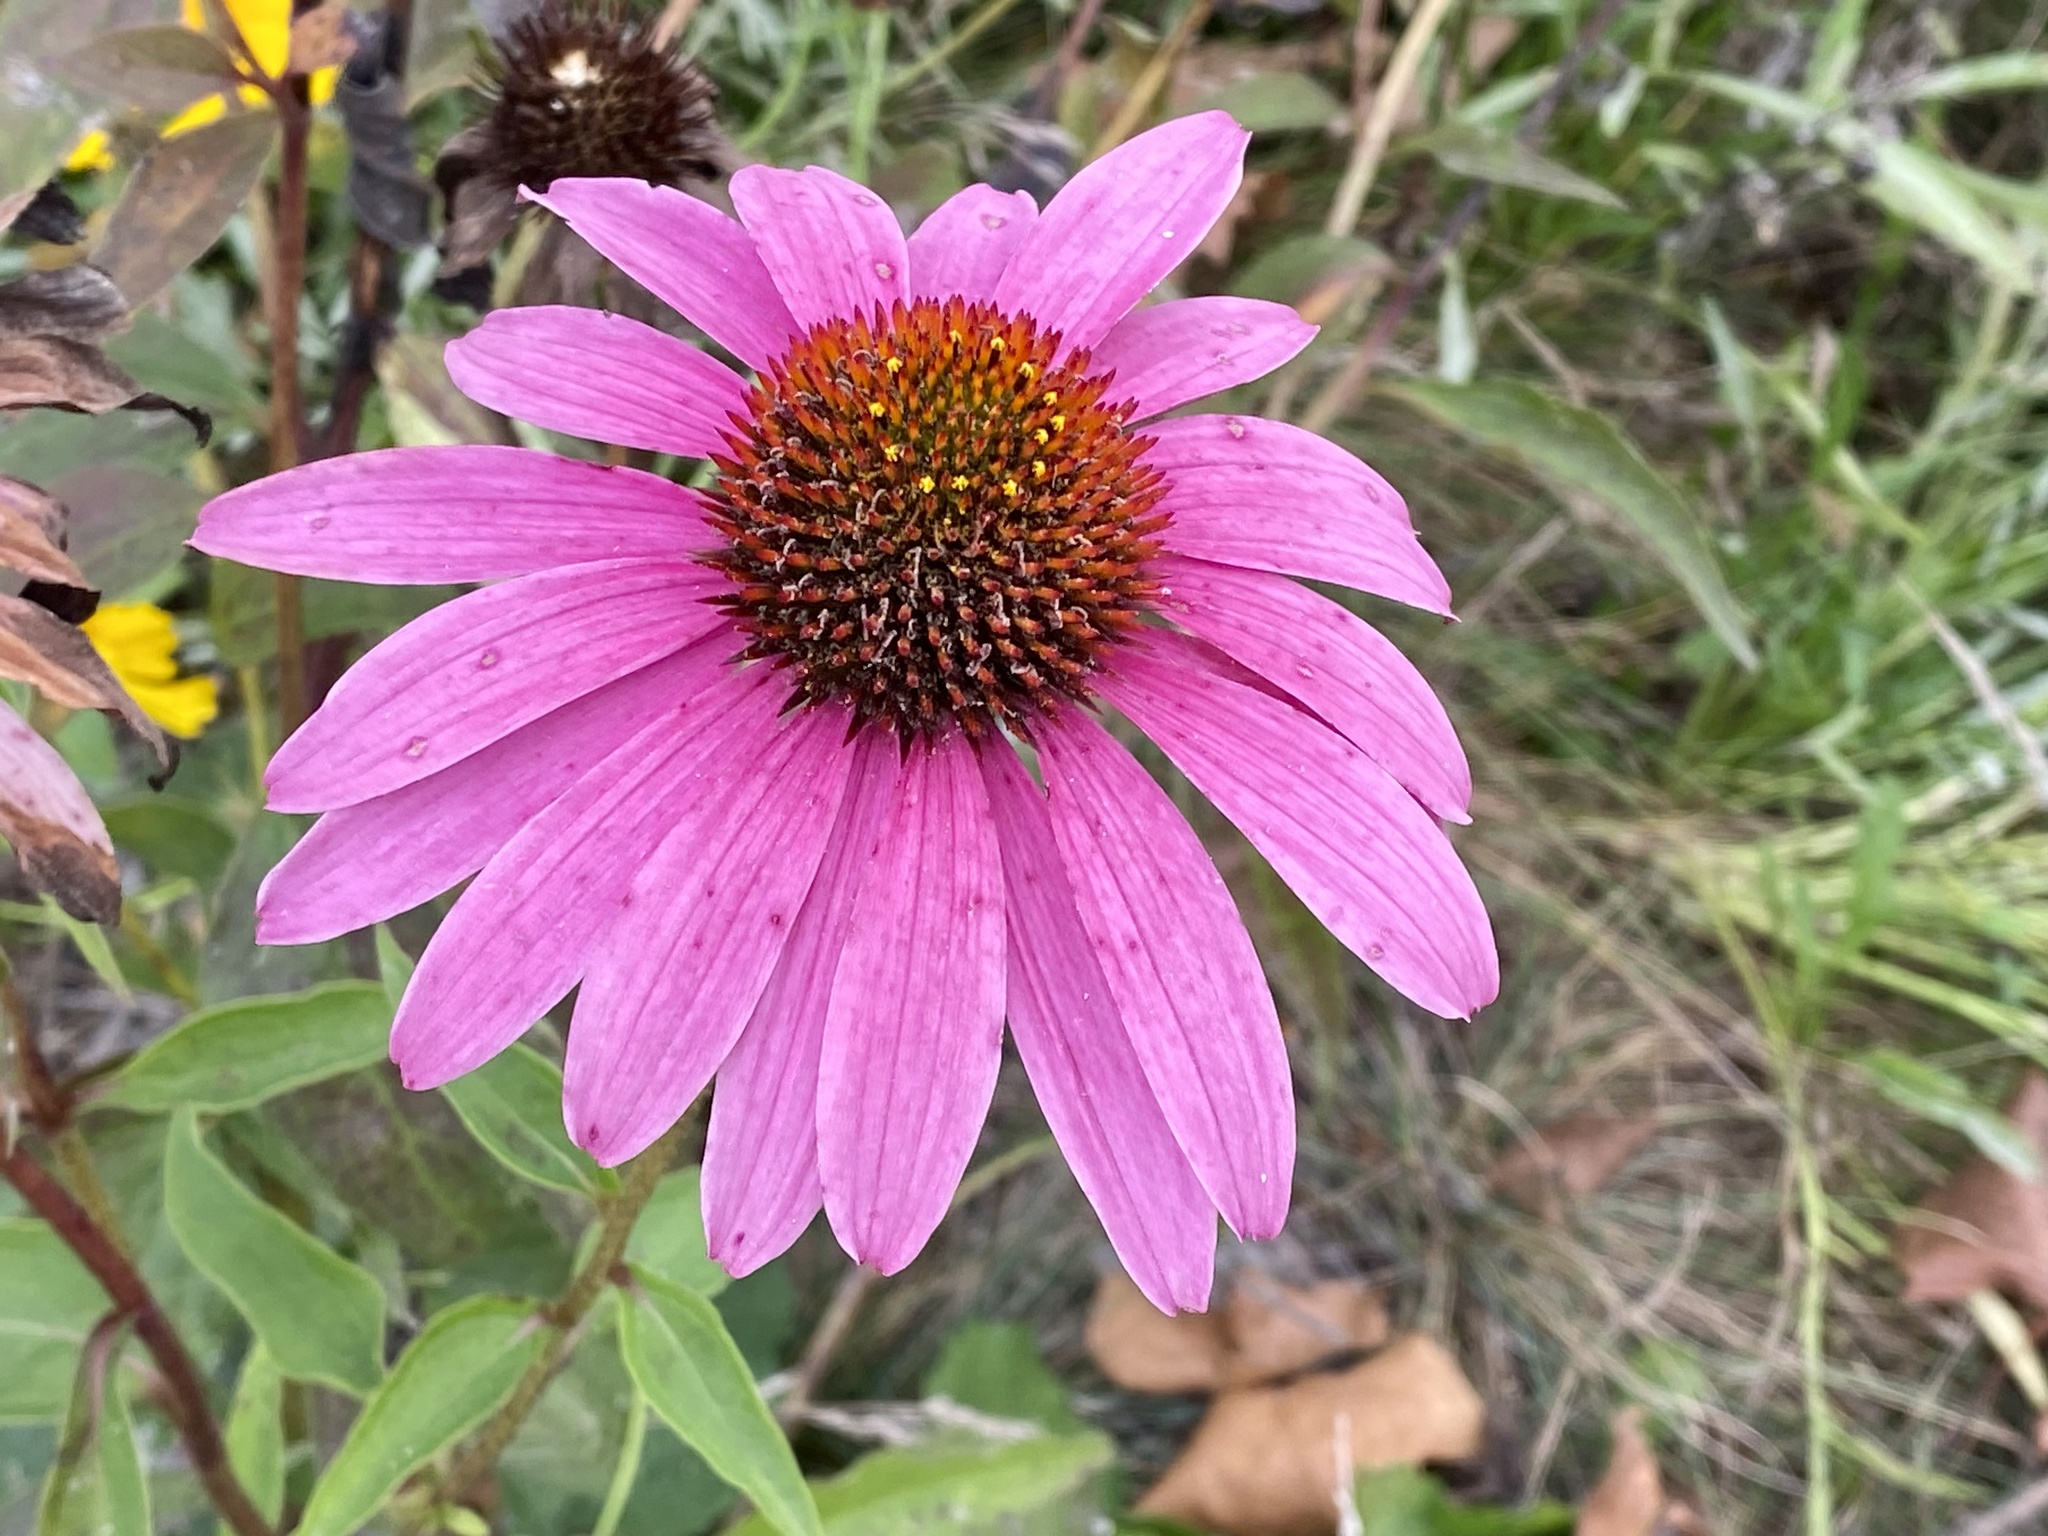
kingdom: Plantae
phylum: Tracheophyta
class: Magnoliopsida
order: Asterales
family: Asteraceae
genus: Echinacea
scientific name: Echinacea purpurea
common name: Broad-leaved purple coneflower
